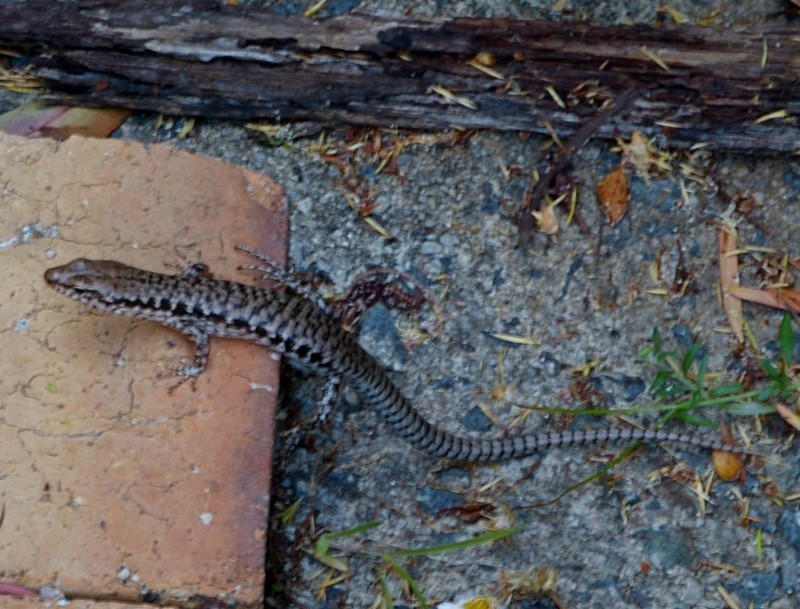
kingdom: Animalia
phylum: Chordata
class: Squamata
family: Scincidae
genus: Concinnia
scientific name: Concinnia tenuis
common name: Bar-sided forest-skink
